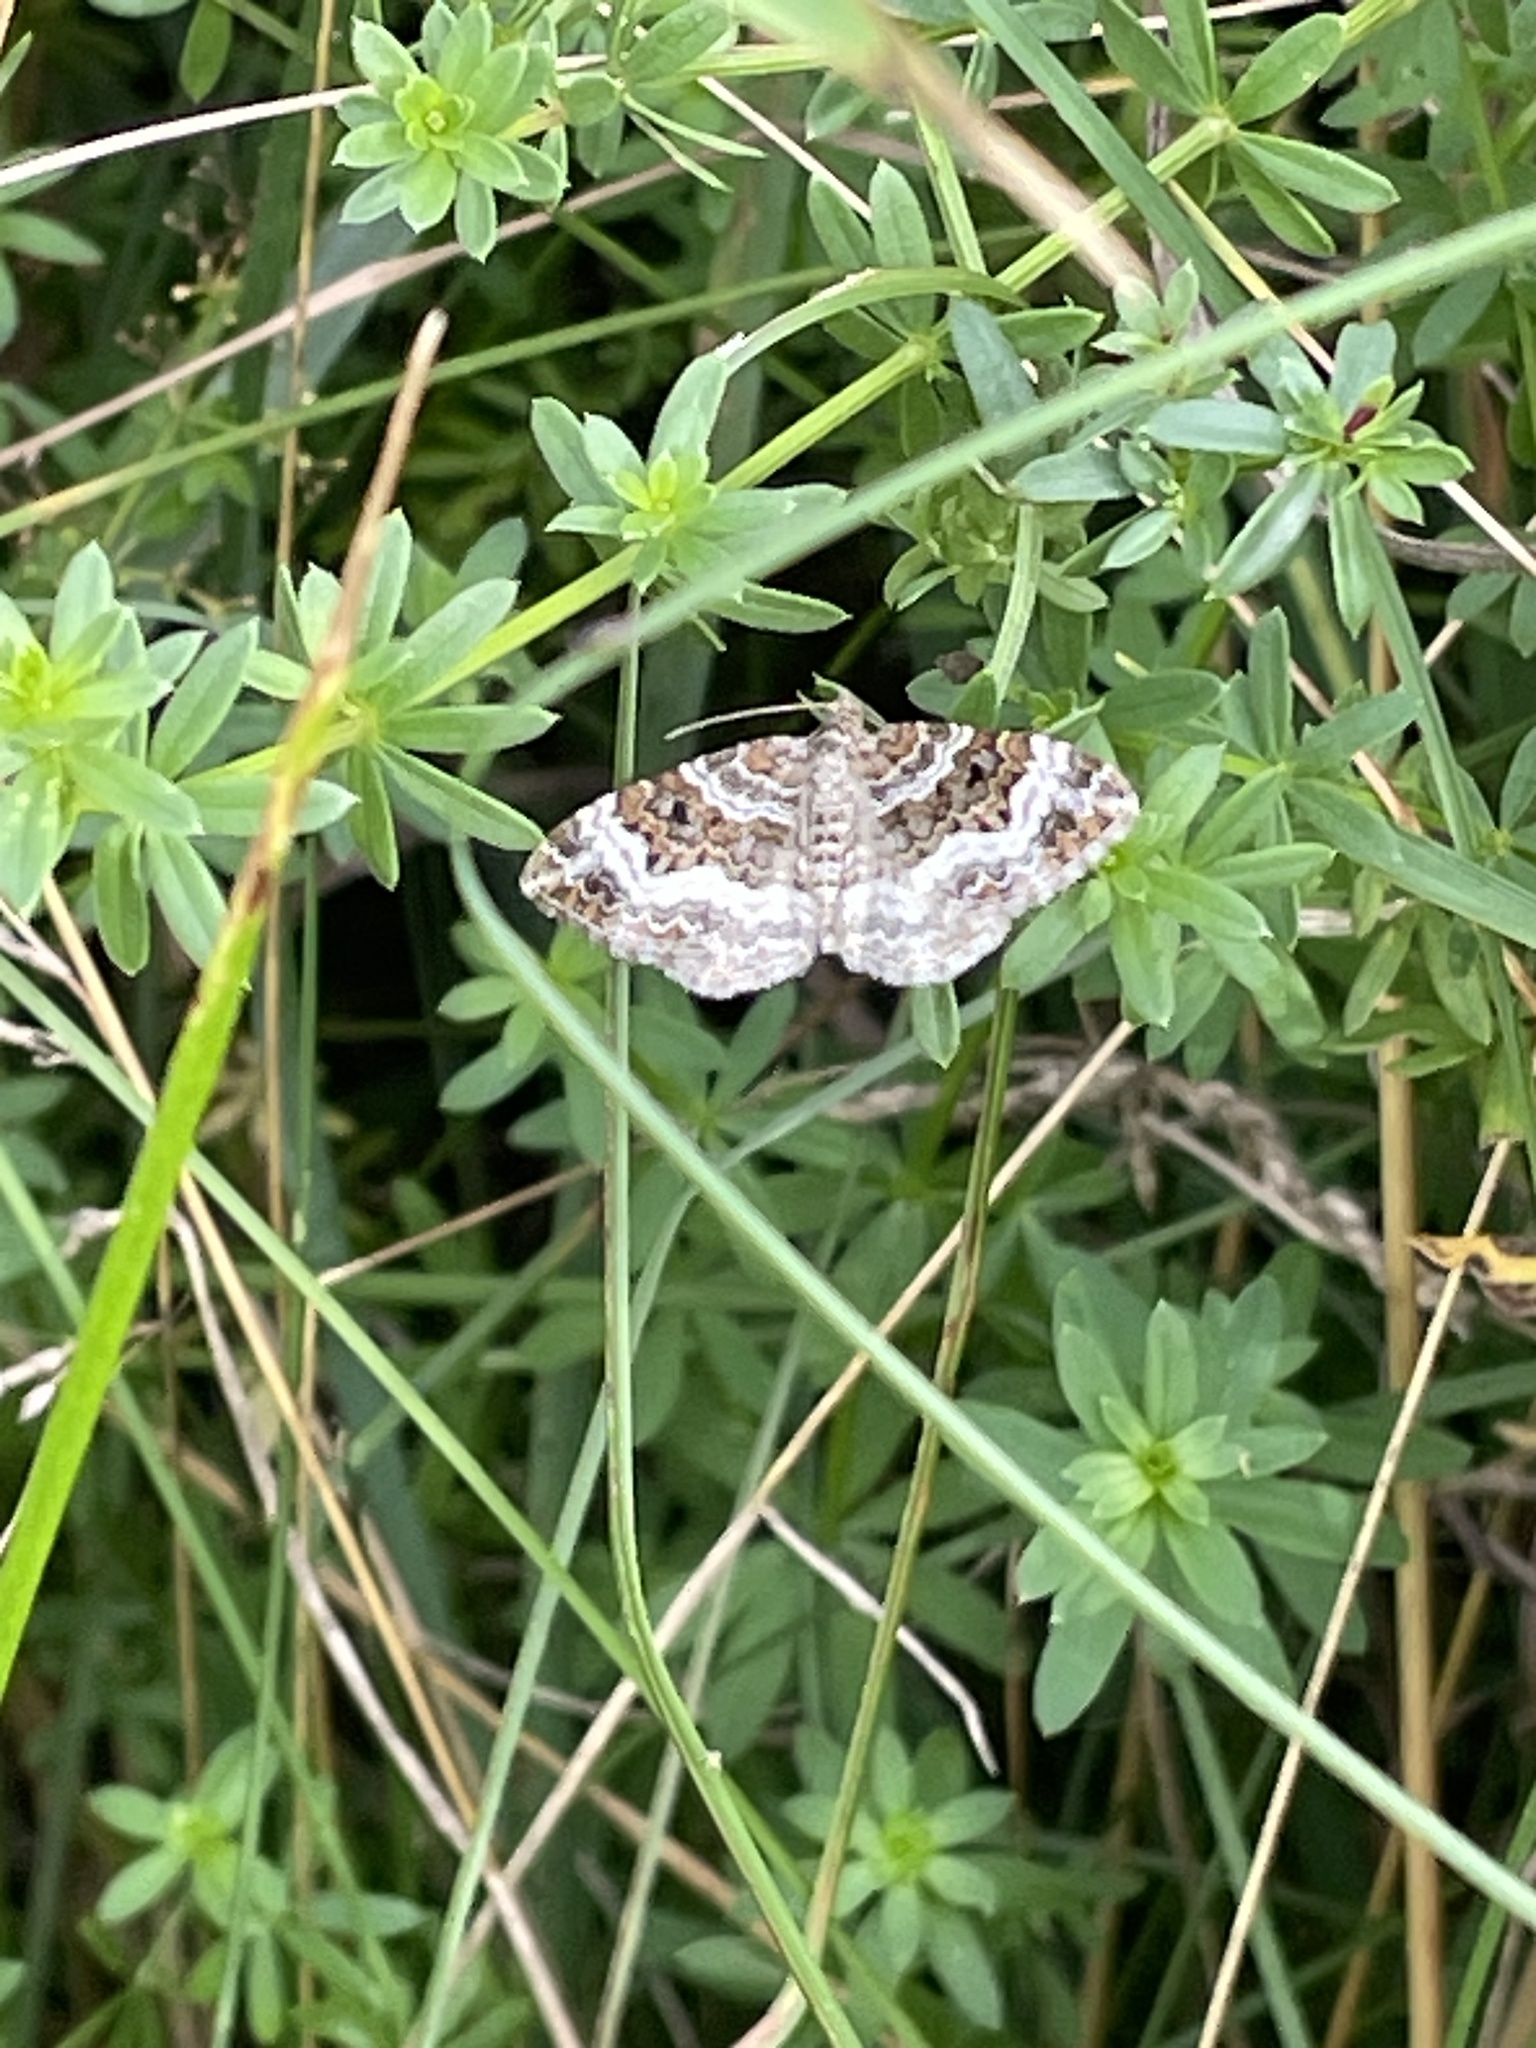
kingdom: Animalia
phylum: Arthropoda
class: Insecta
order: Lepidoptera
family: Geometridae
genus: Epirrhoe
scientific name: Epirrhoe alternata
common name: Common carpet
